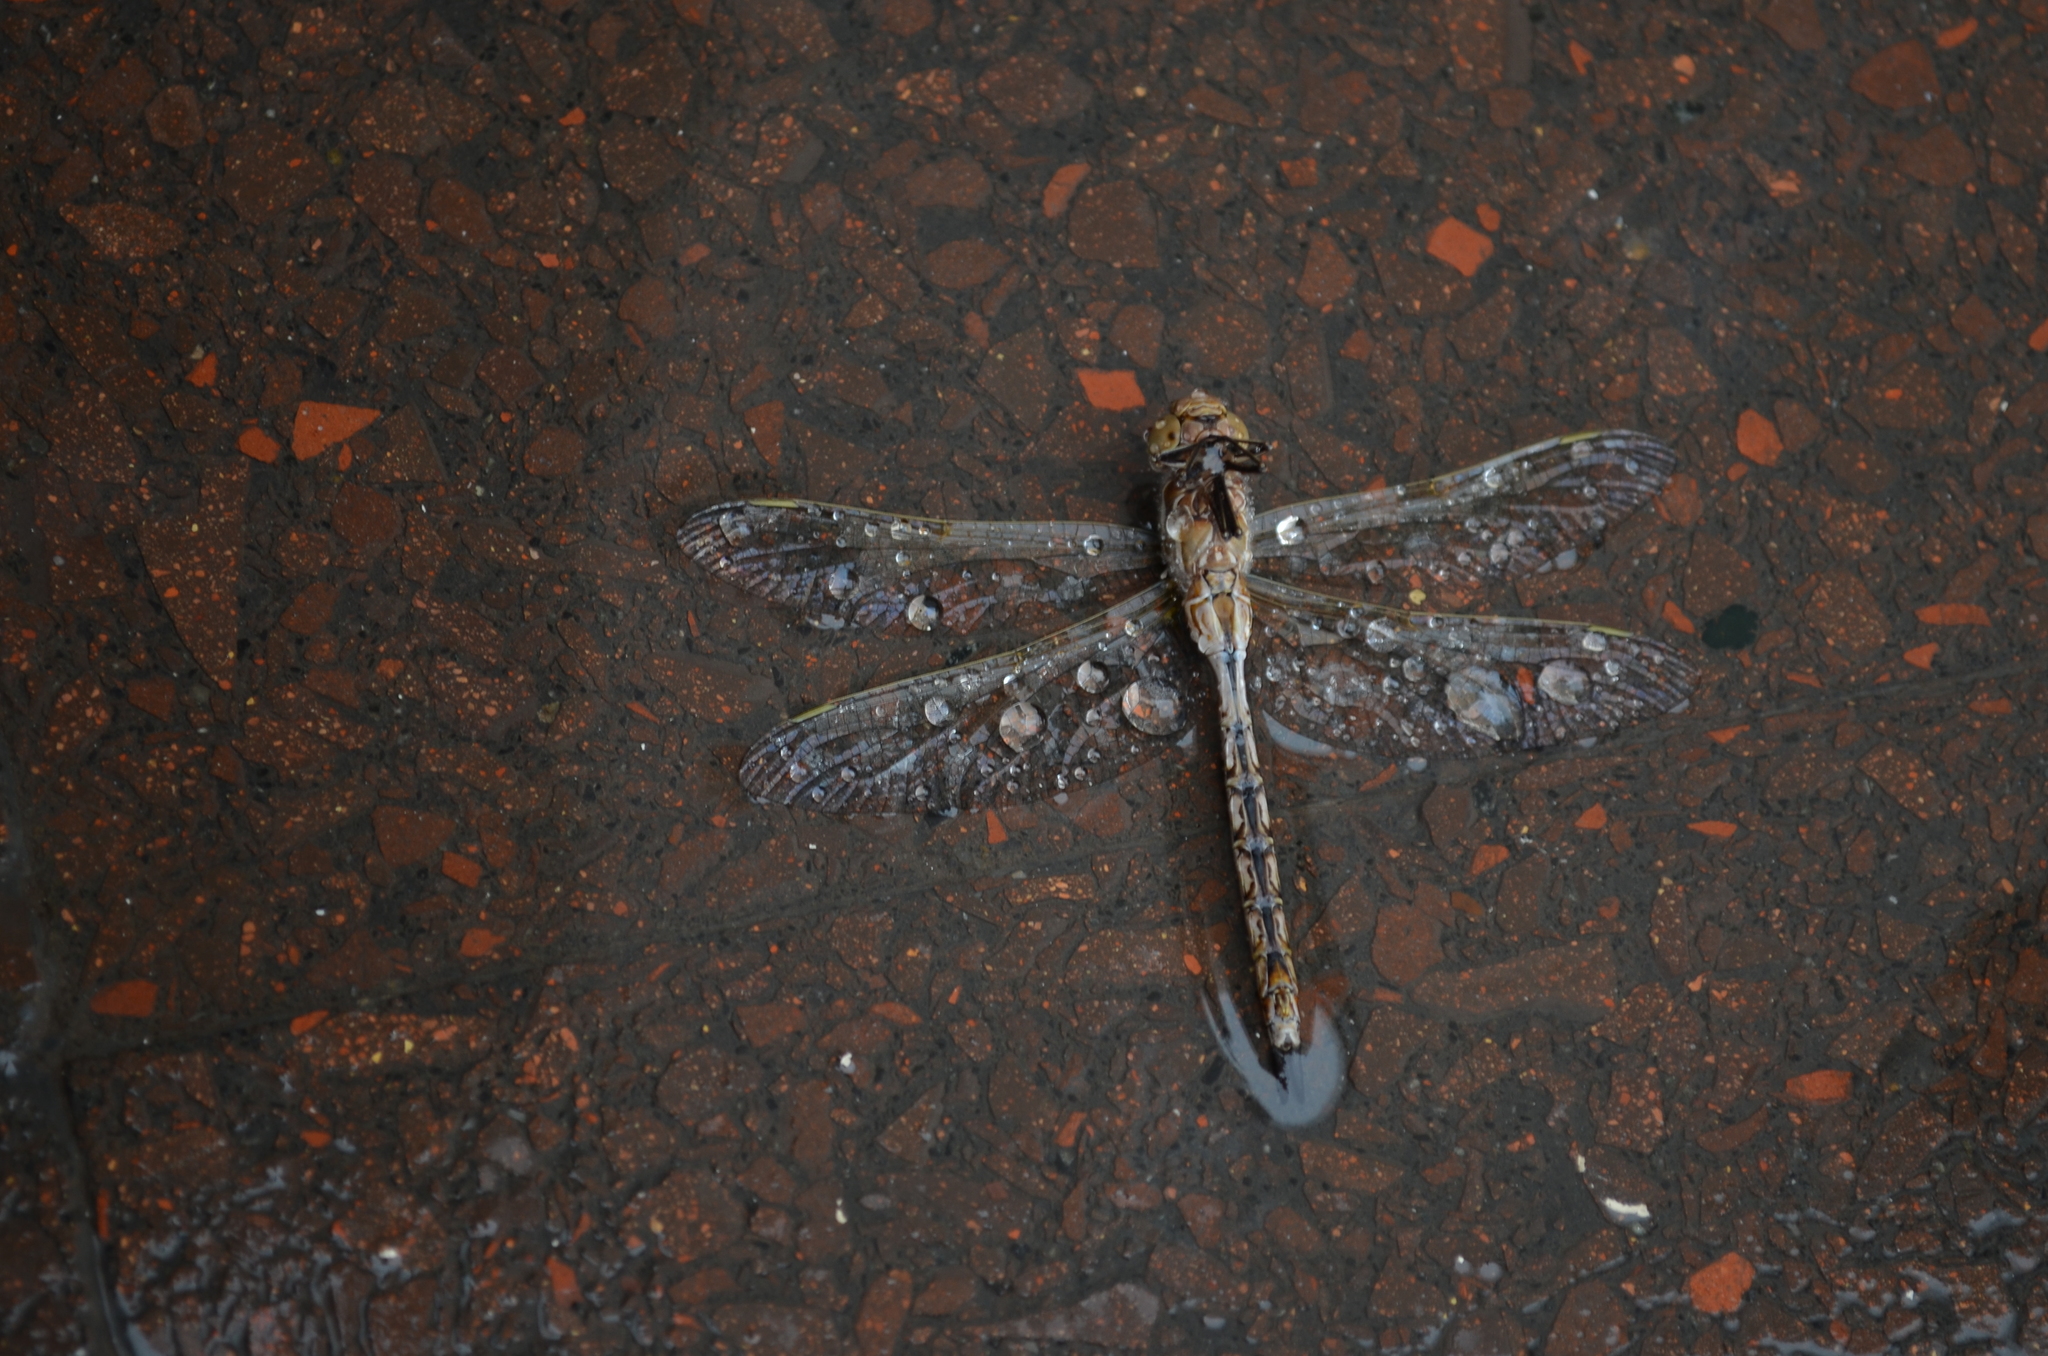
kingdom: Animalia
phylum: Arthropoda
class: Insecta
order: Odonata
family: Aeshnidae
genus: Rhionaeschna
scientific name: Rhionaeschna bonariensis
